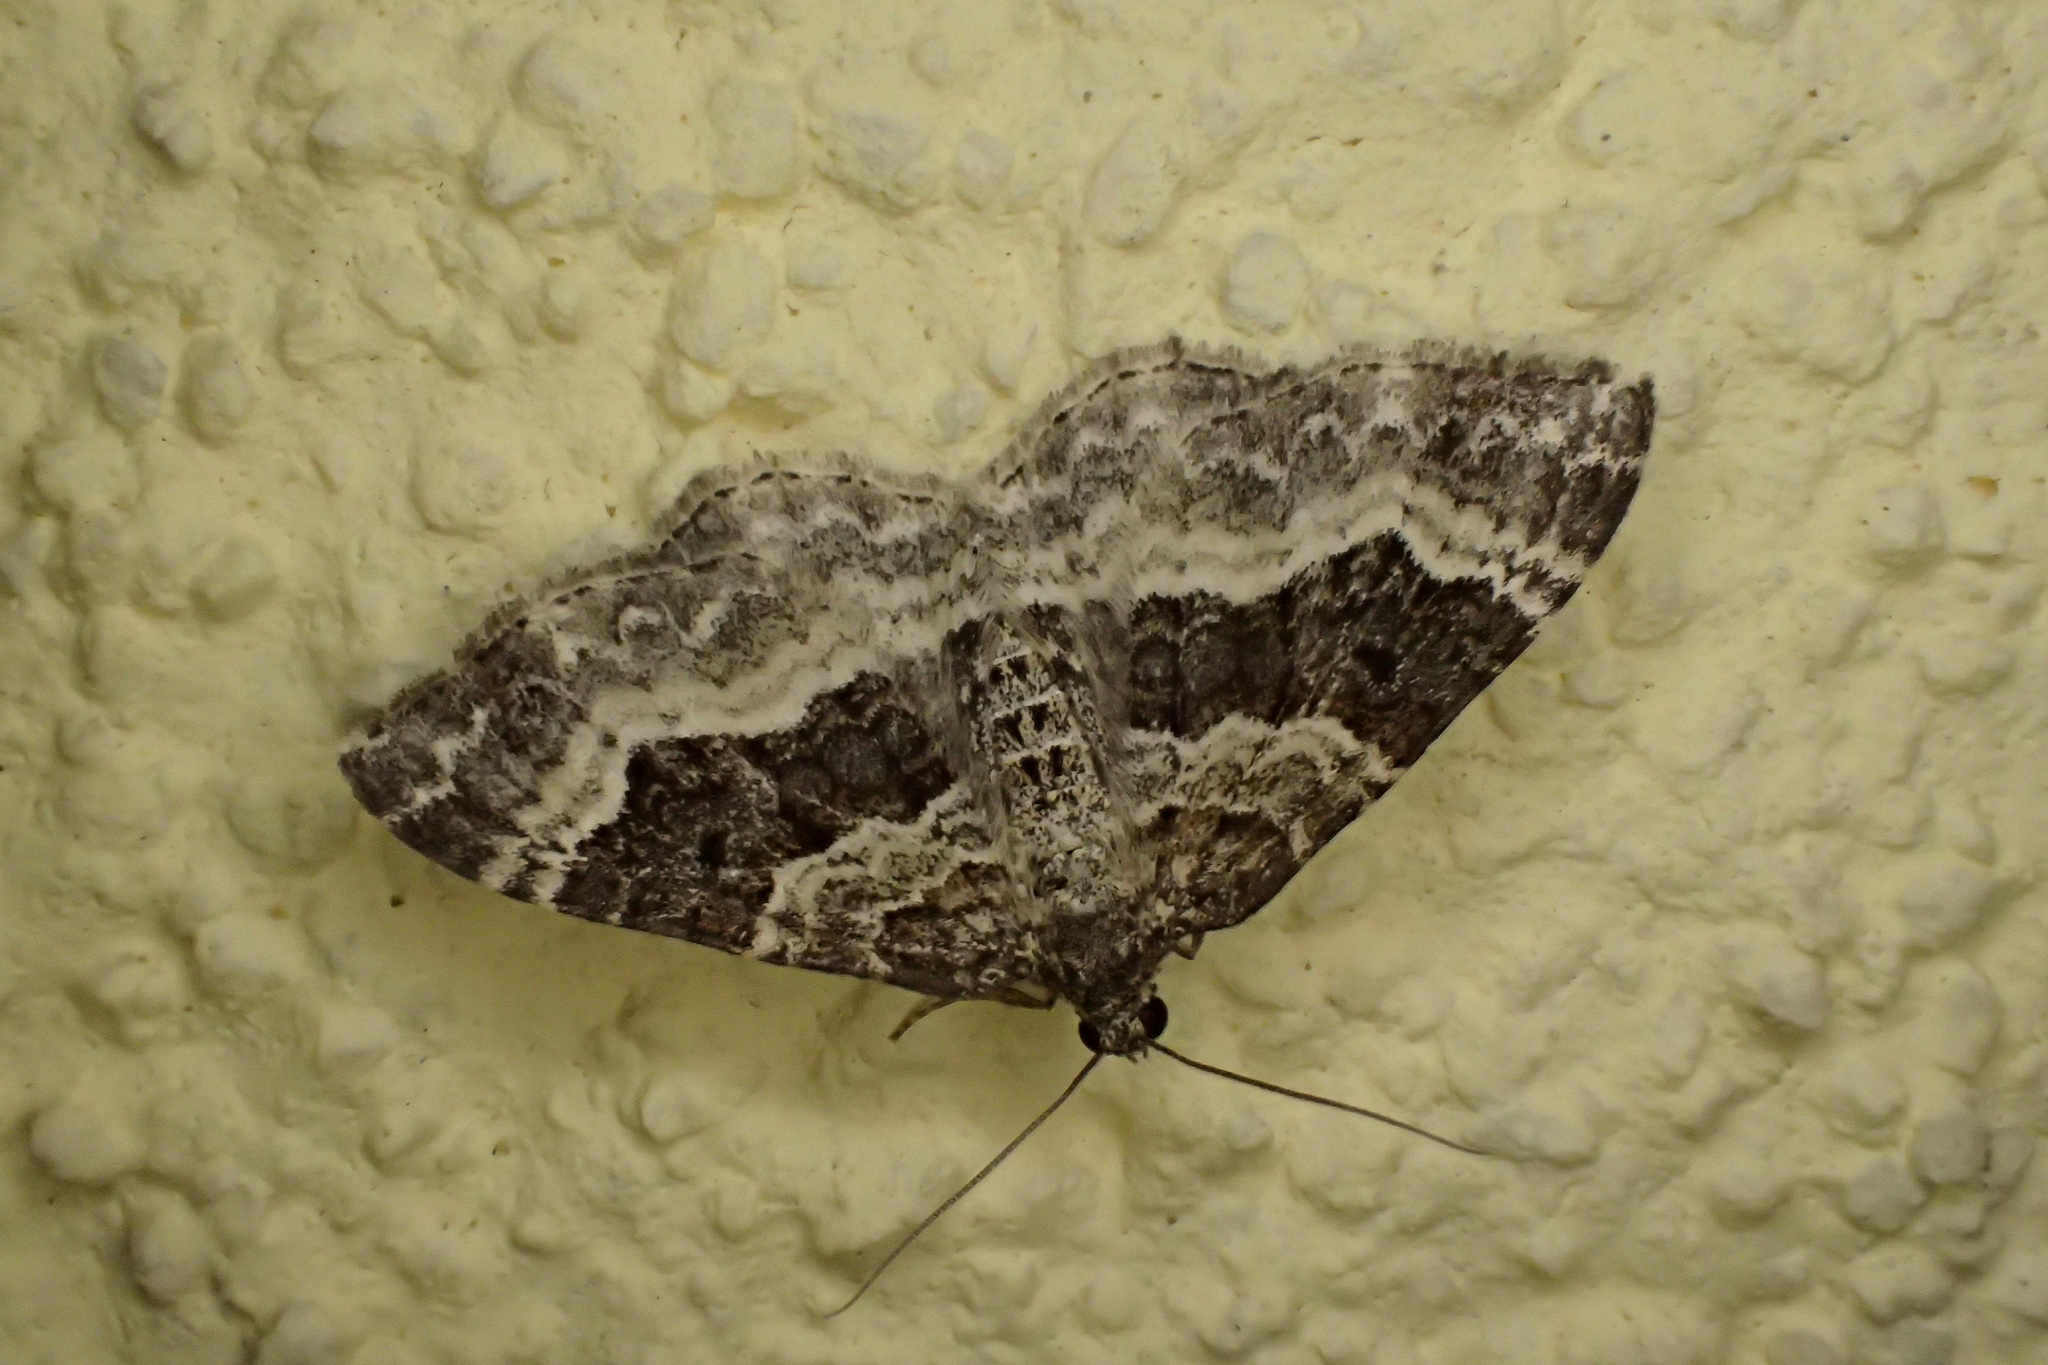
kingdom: Animalia
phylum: Arthropoda
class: Insecta
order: Lepidoptera
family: Geometridae
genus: Epirrhoe
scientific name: Epirrhoe alternata
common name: Common carpet
